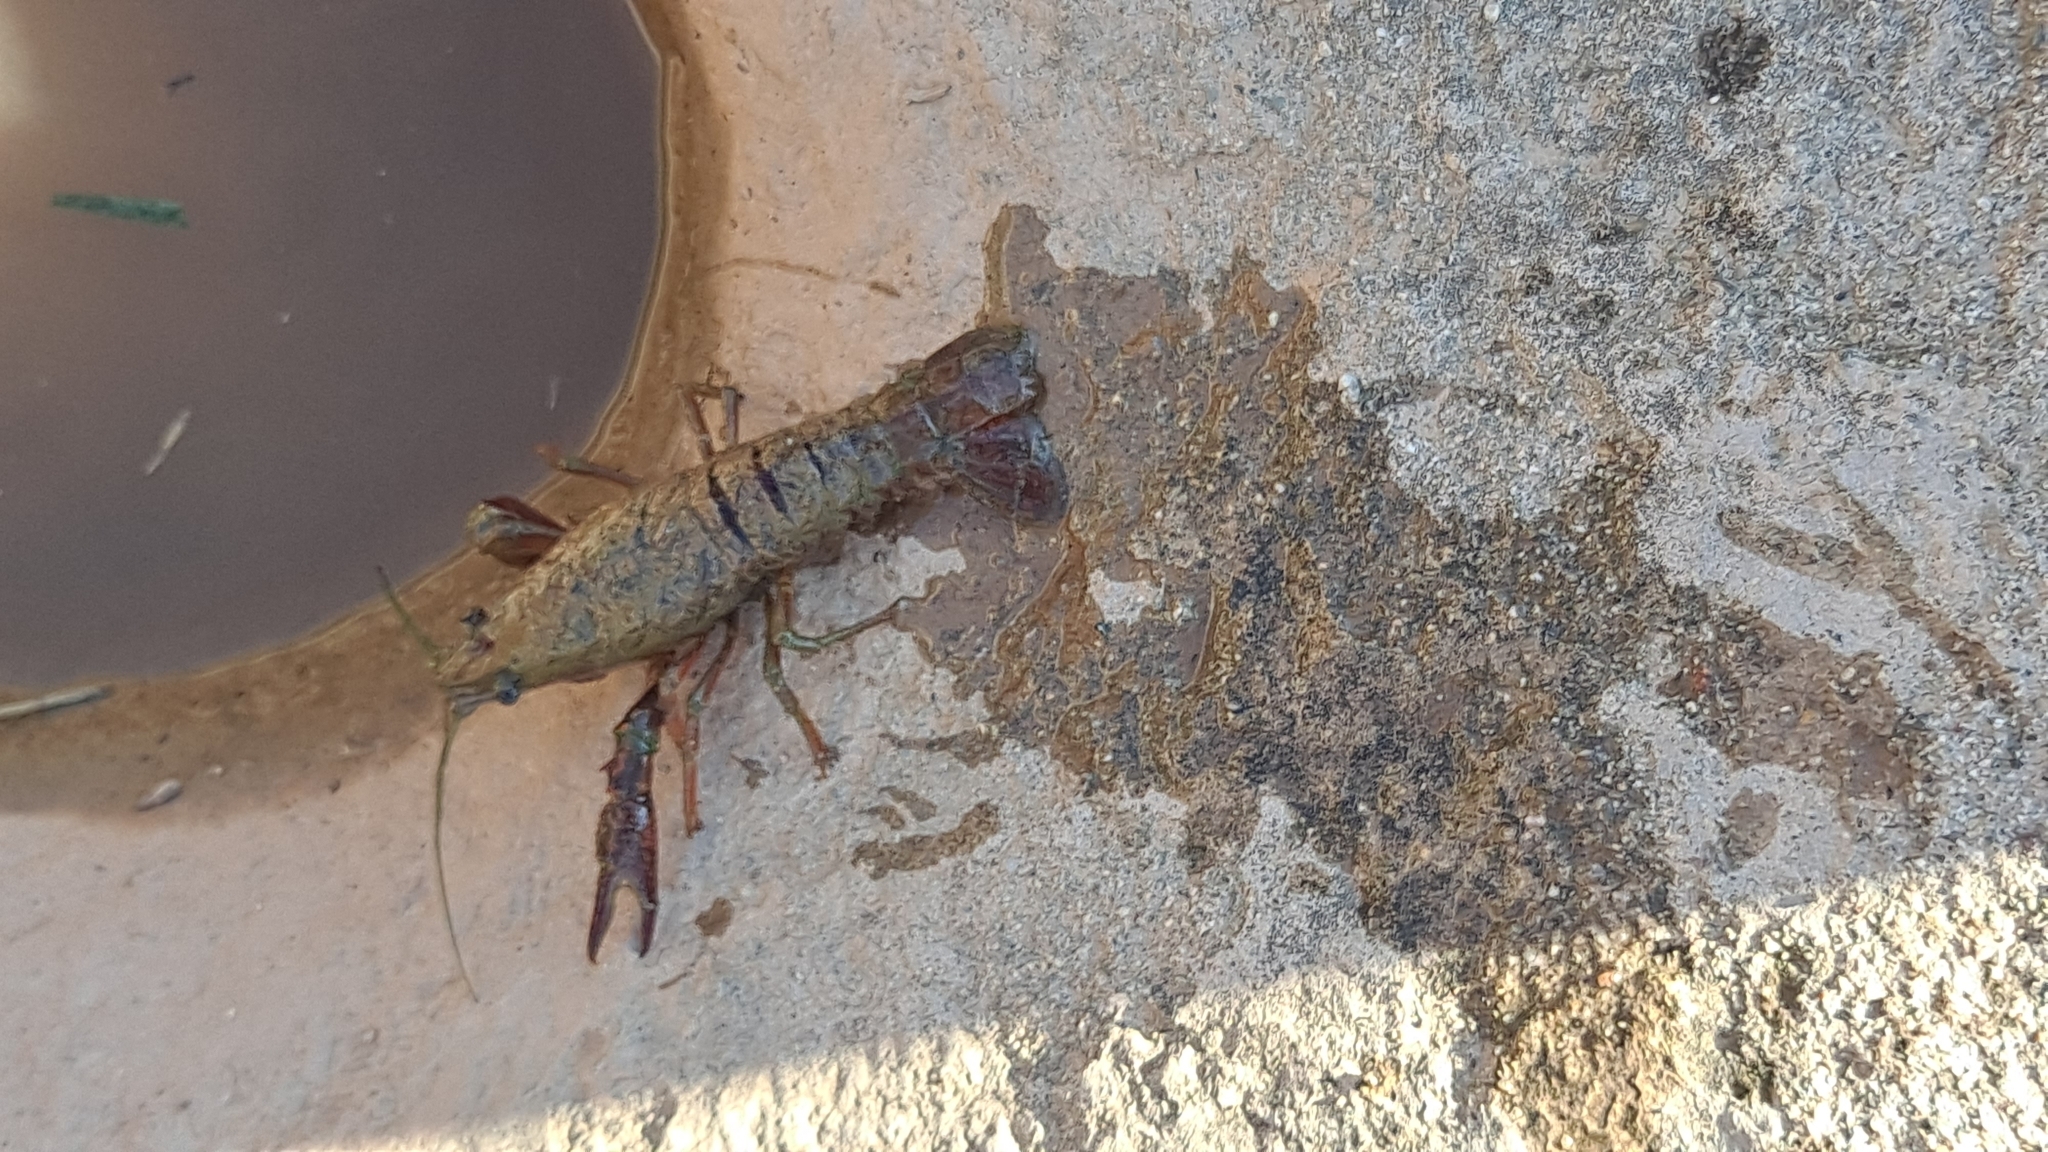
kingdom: Animalia
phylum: Arthropoda
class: Malacostraca
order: Decapoda
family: Cambaridae
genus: Procambarus
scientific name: Procambarus clarkii
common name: Red swamp crayfish
